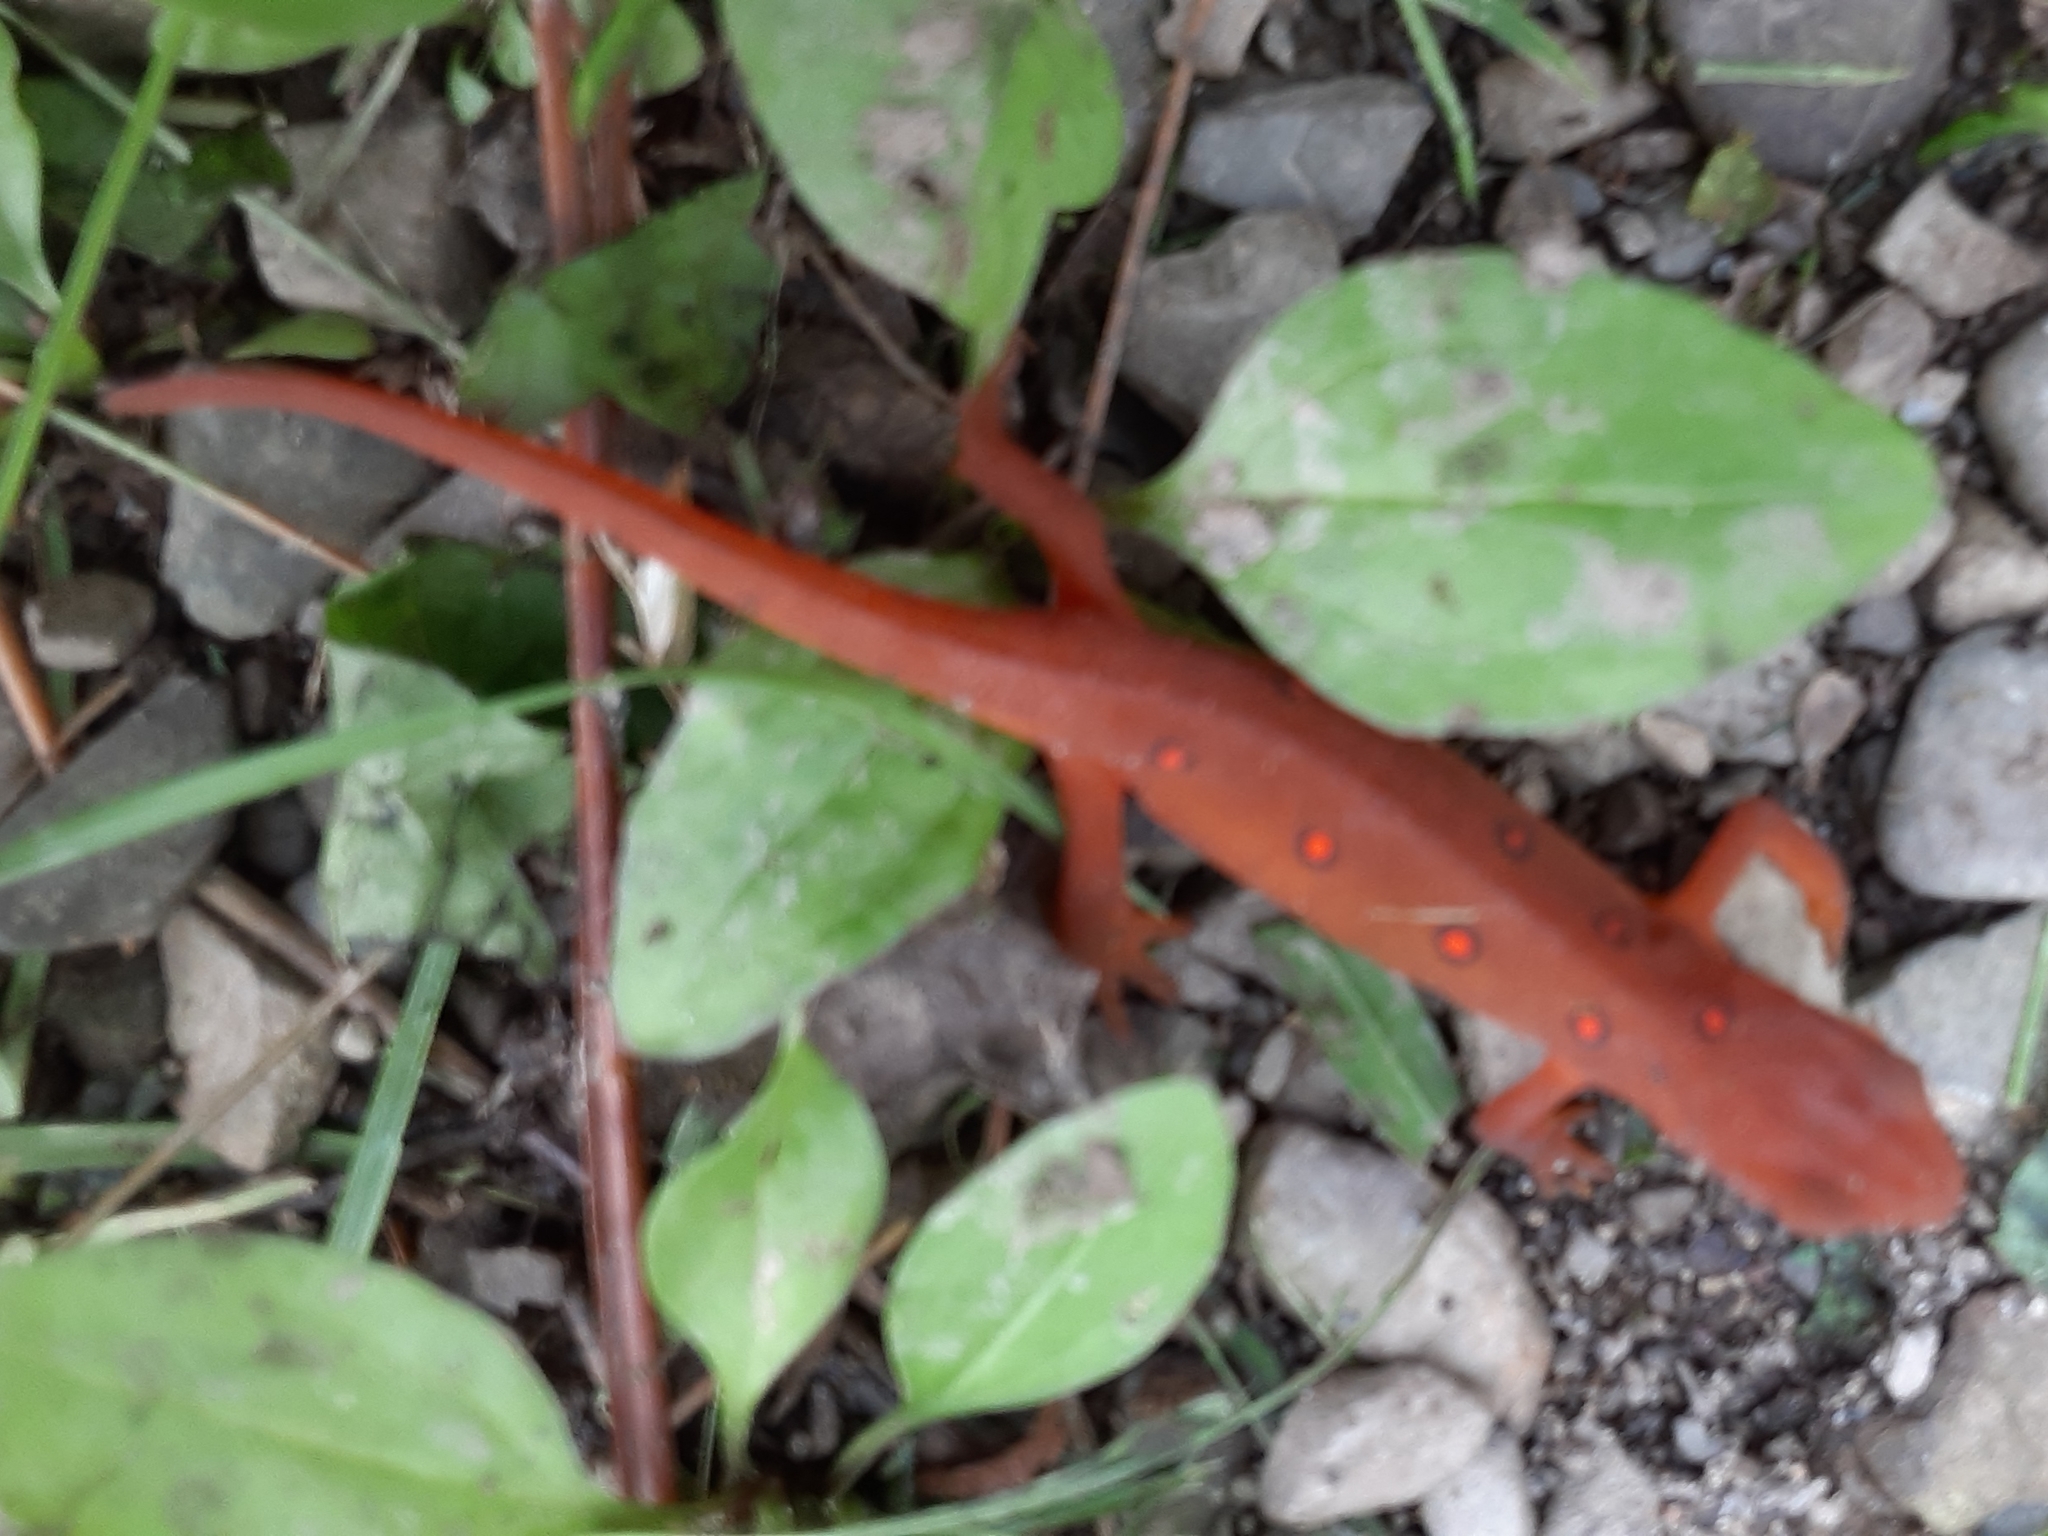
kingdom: Animalia
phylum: Chordata
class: Amphibia
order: Caudata
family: Salamandridae
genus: Notophthalmus
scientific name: Notophthalmus viridescens
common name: Eastern newt
